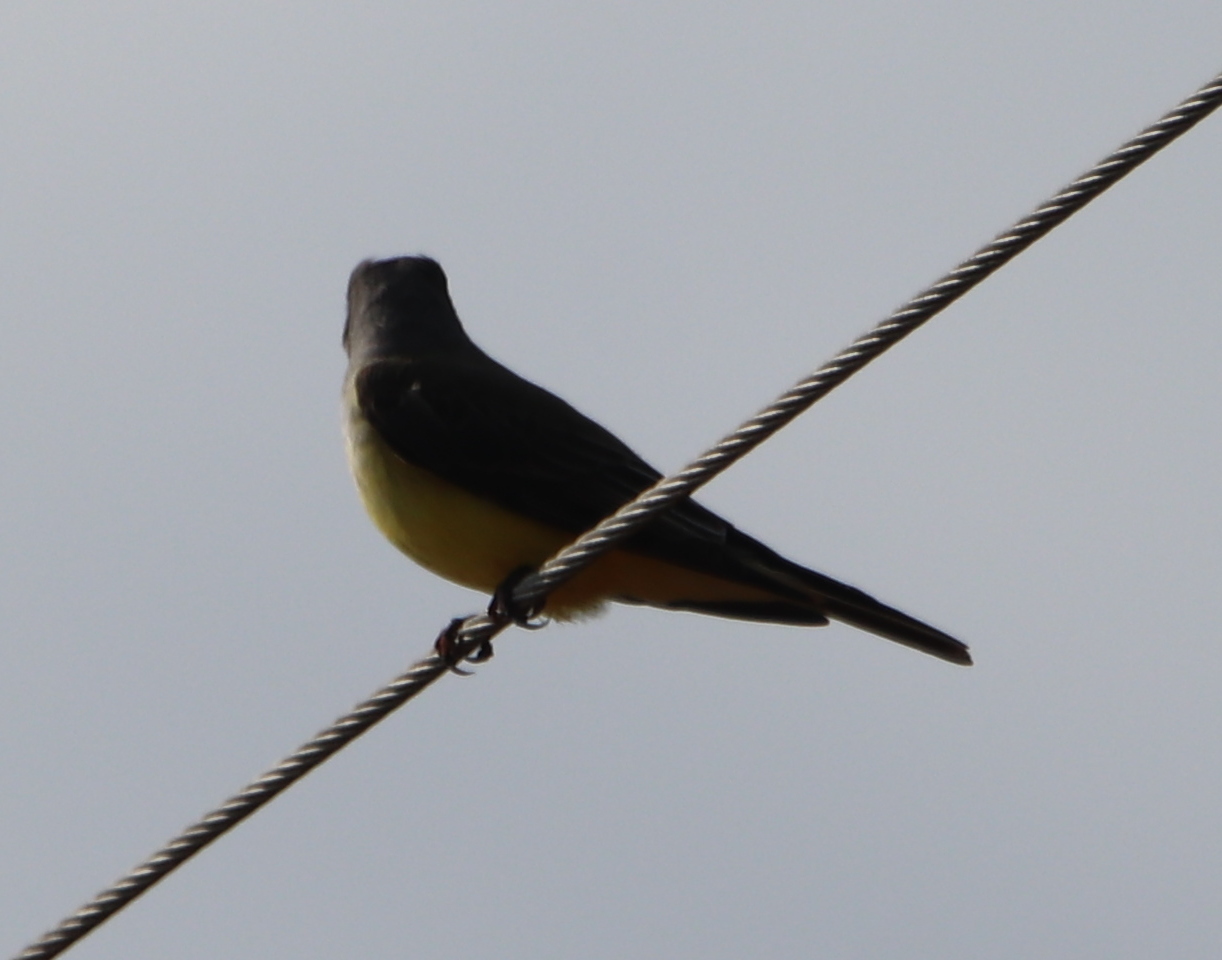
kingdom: Animalia
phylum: Chordata
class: Aves
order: Passeriformes
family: Tyrannidae
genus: Tyrannus
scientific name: Tyrannus verticalis
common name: Western kingbird
